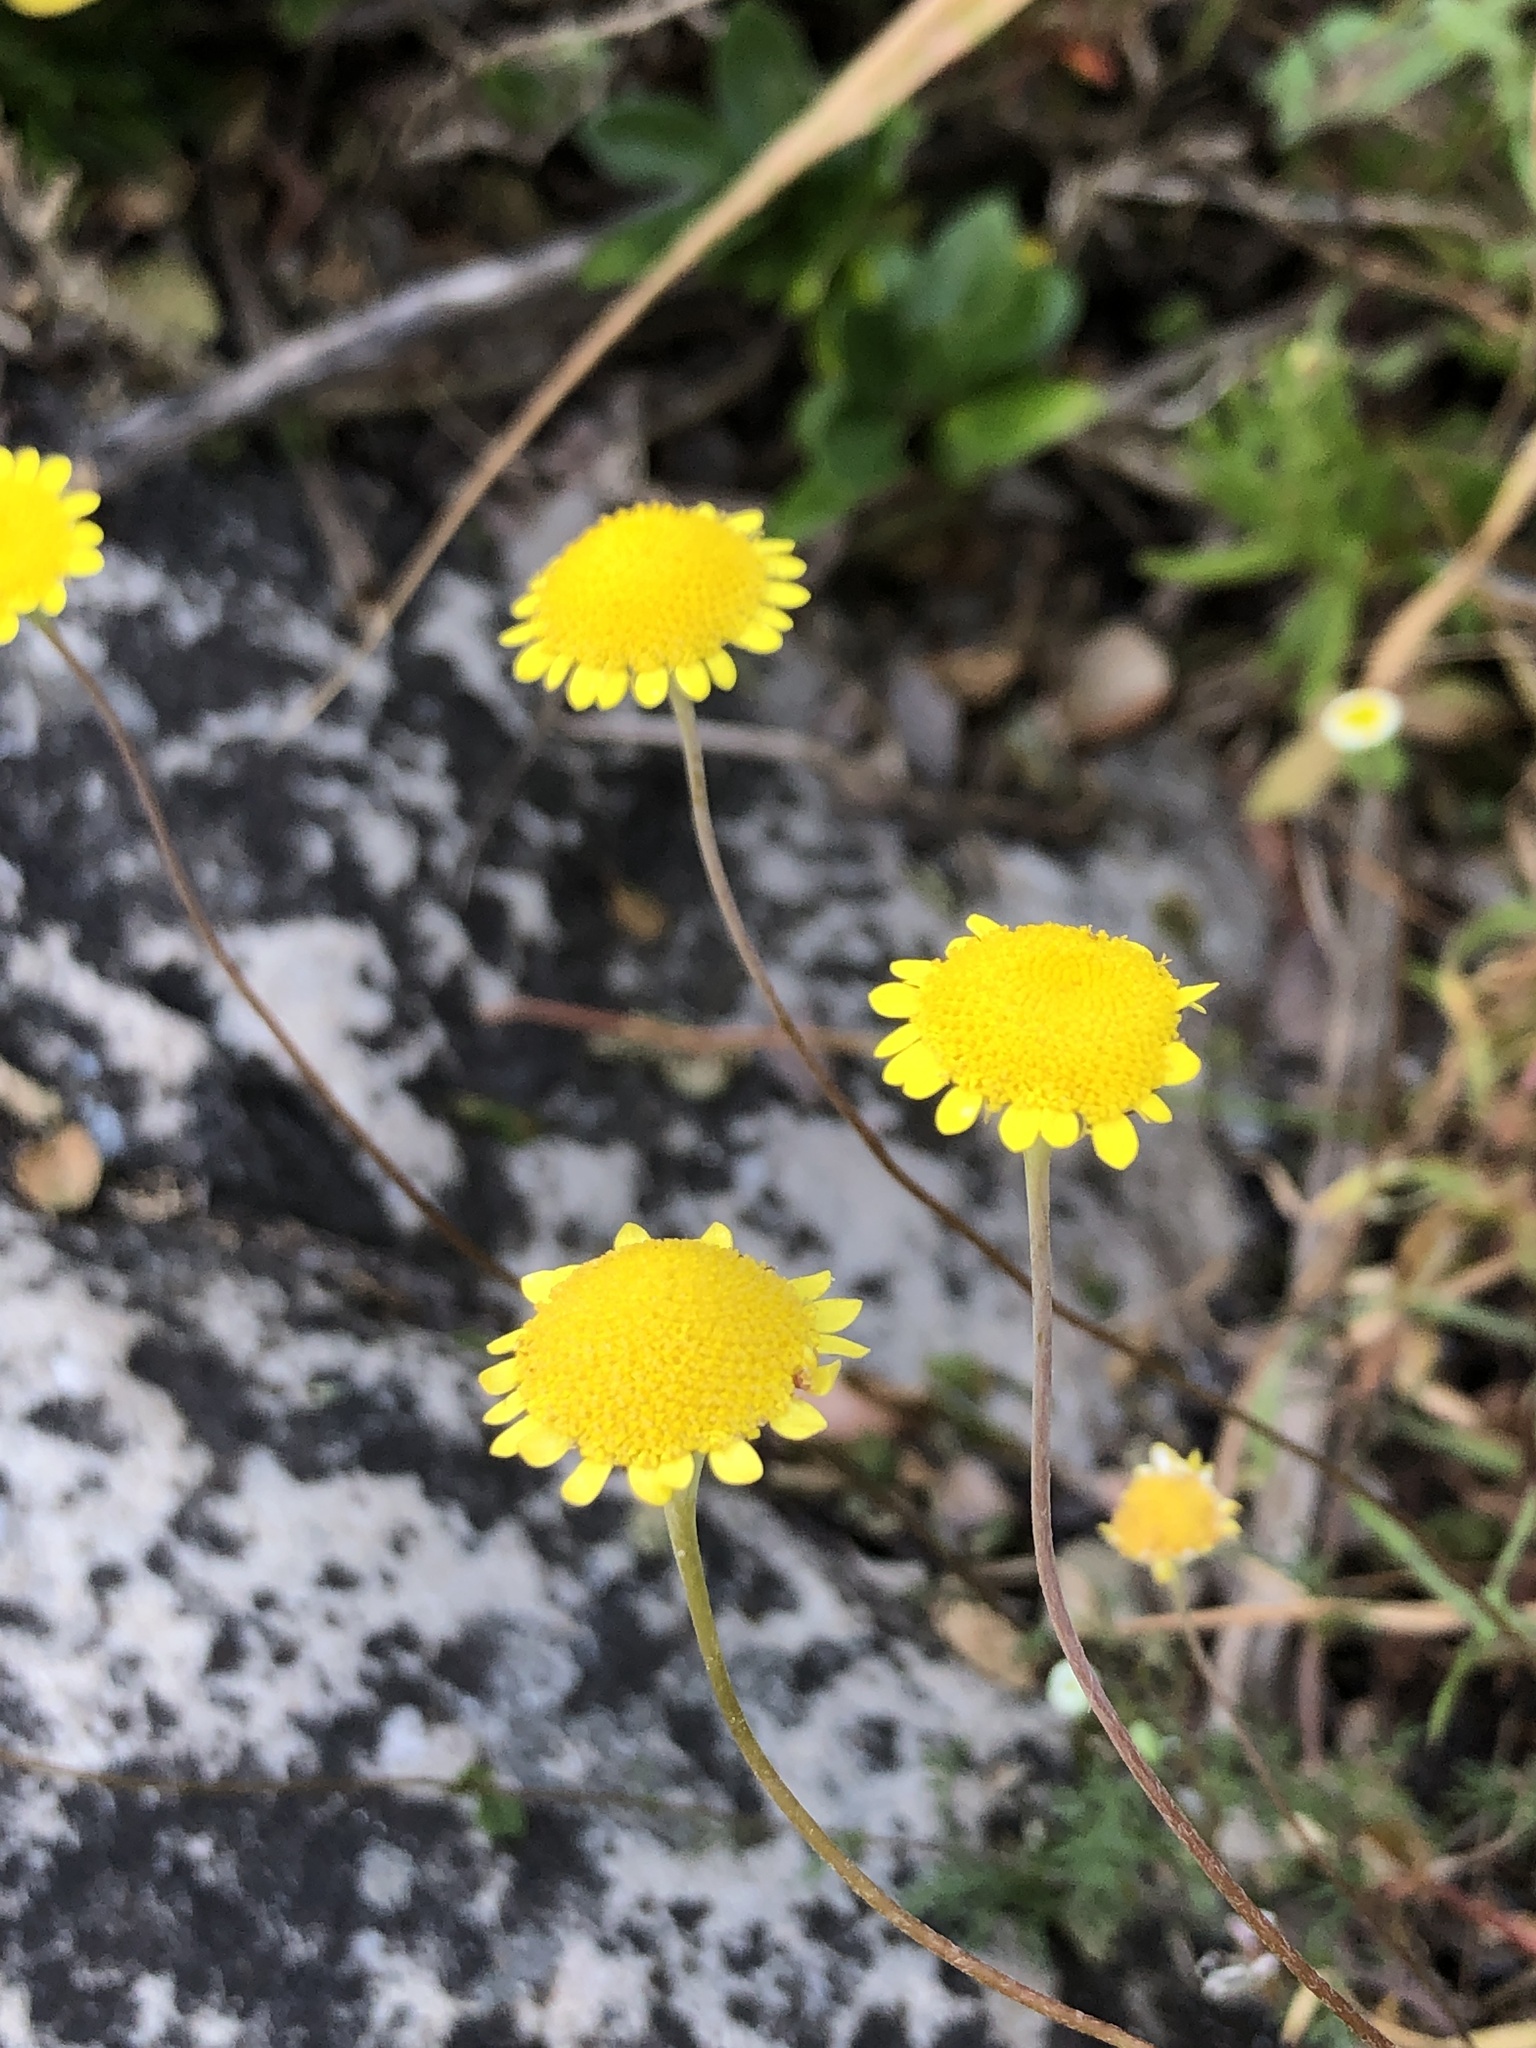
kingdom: Plantae
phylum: Tracheophyta
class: Magnoliopsida
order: Asterales
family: Asteraceae
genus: Cotula
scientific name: Cotula pruinosa
